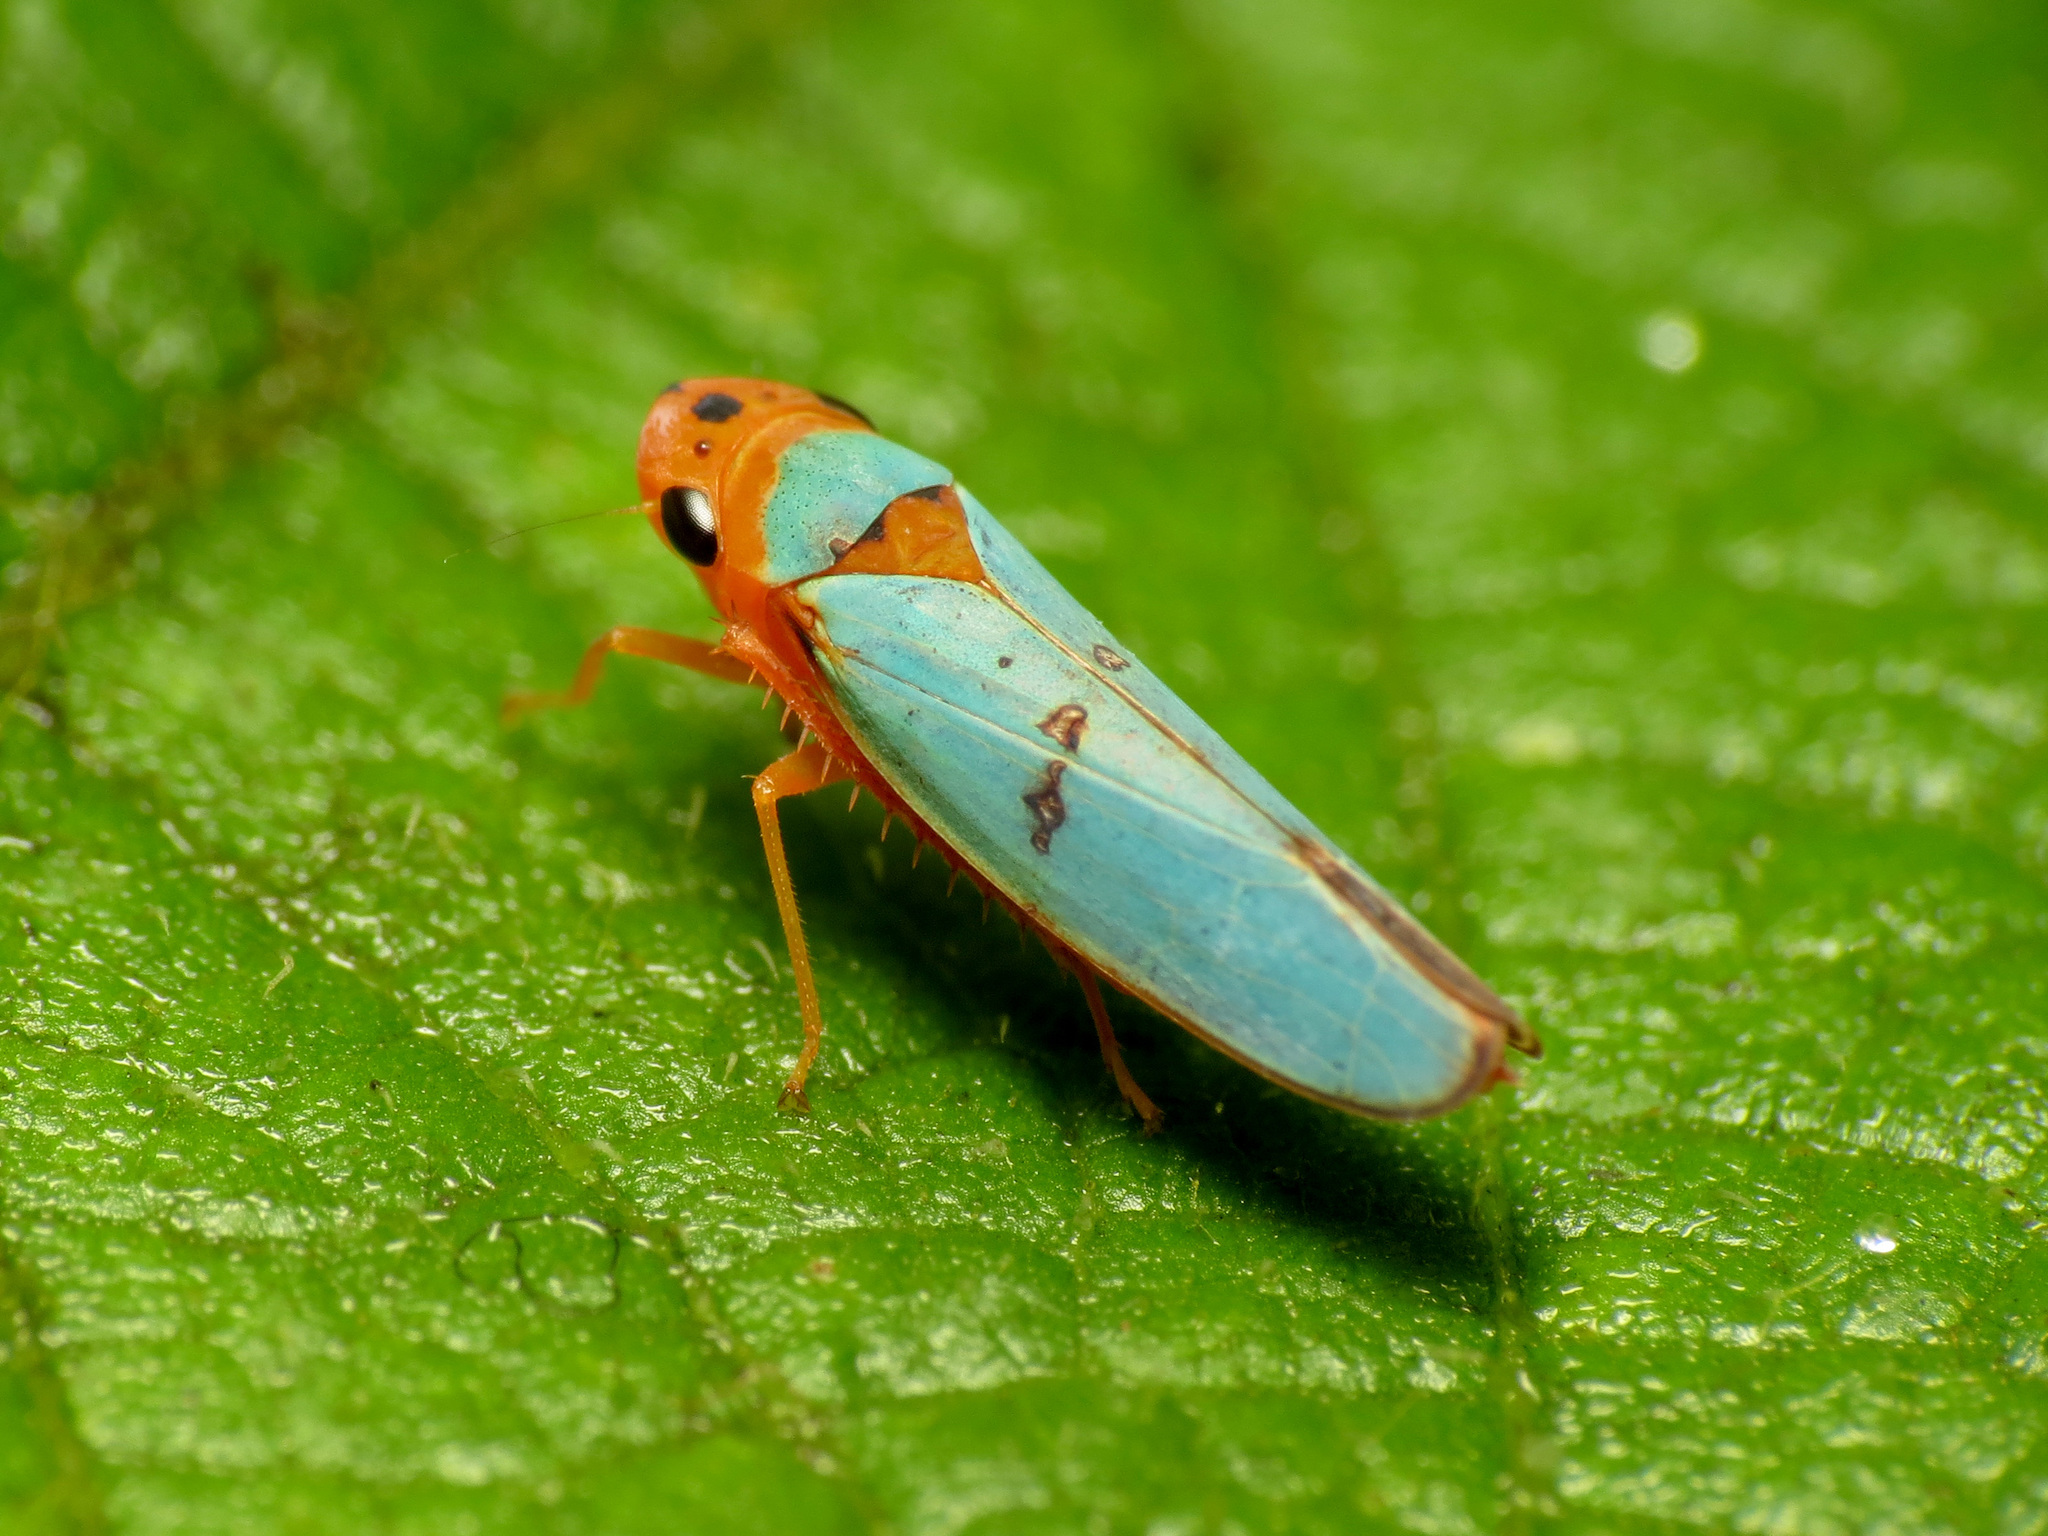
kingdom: Animalia
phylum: Arthropoda
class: Insecta
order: Hemiptera
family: Cicadellidae
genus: Macunolla
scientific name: Macunolla ventralis
